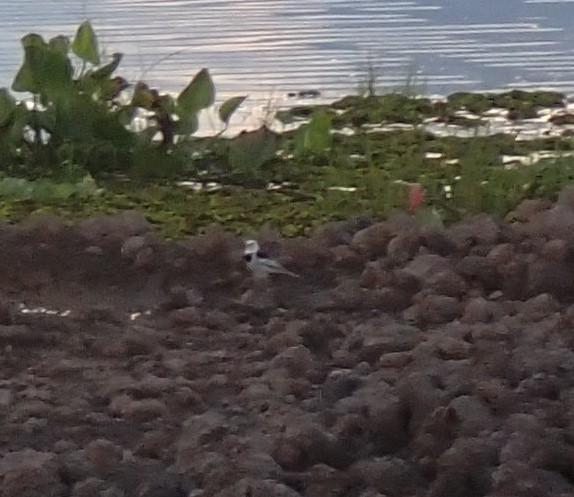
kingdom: Animalia
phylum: Chordata
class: Aves
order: Passeriformes
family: Motacillidae
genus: Motacilla
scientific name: Motacilla alba
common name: White wagtail
